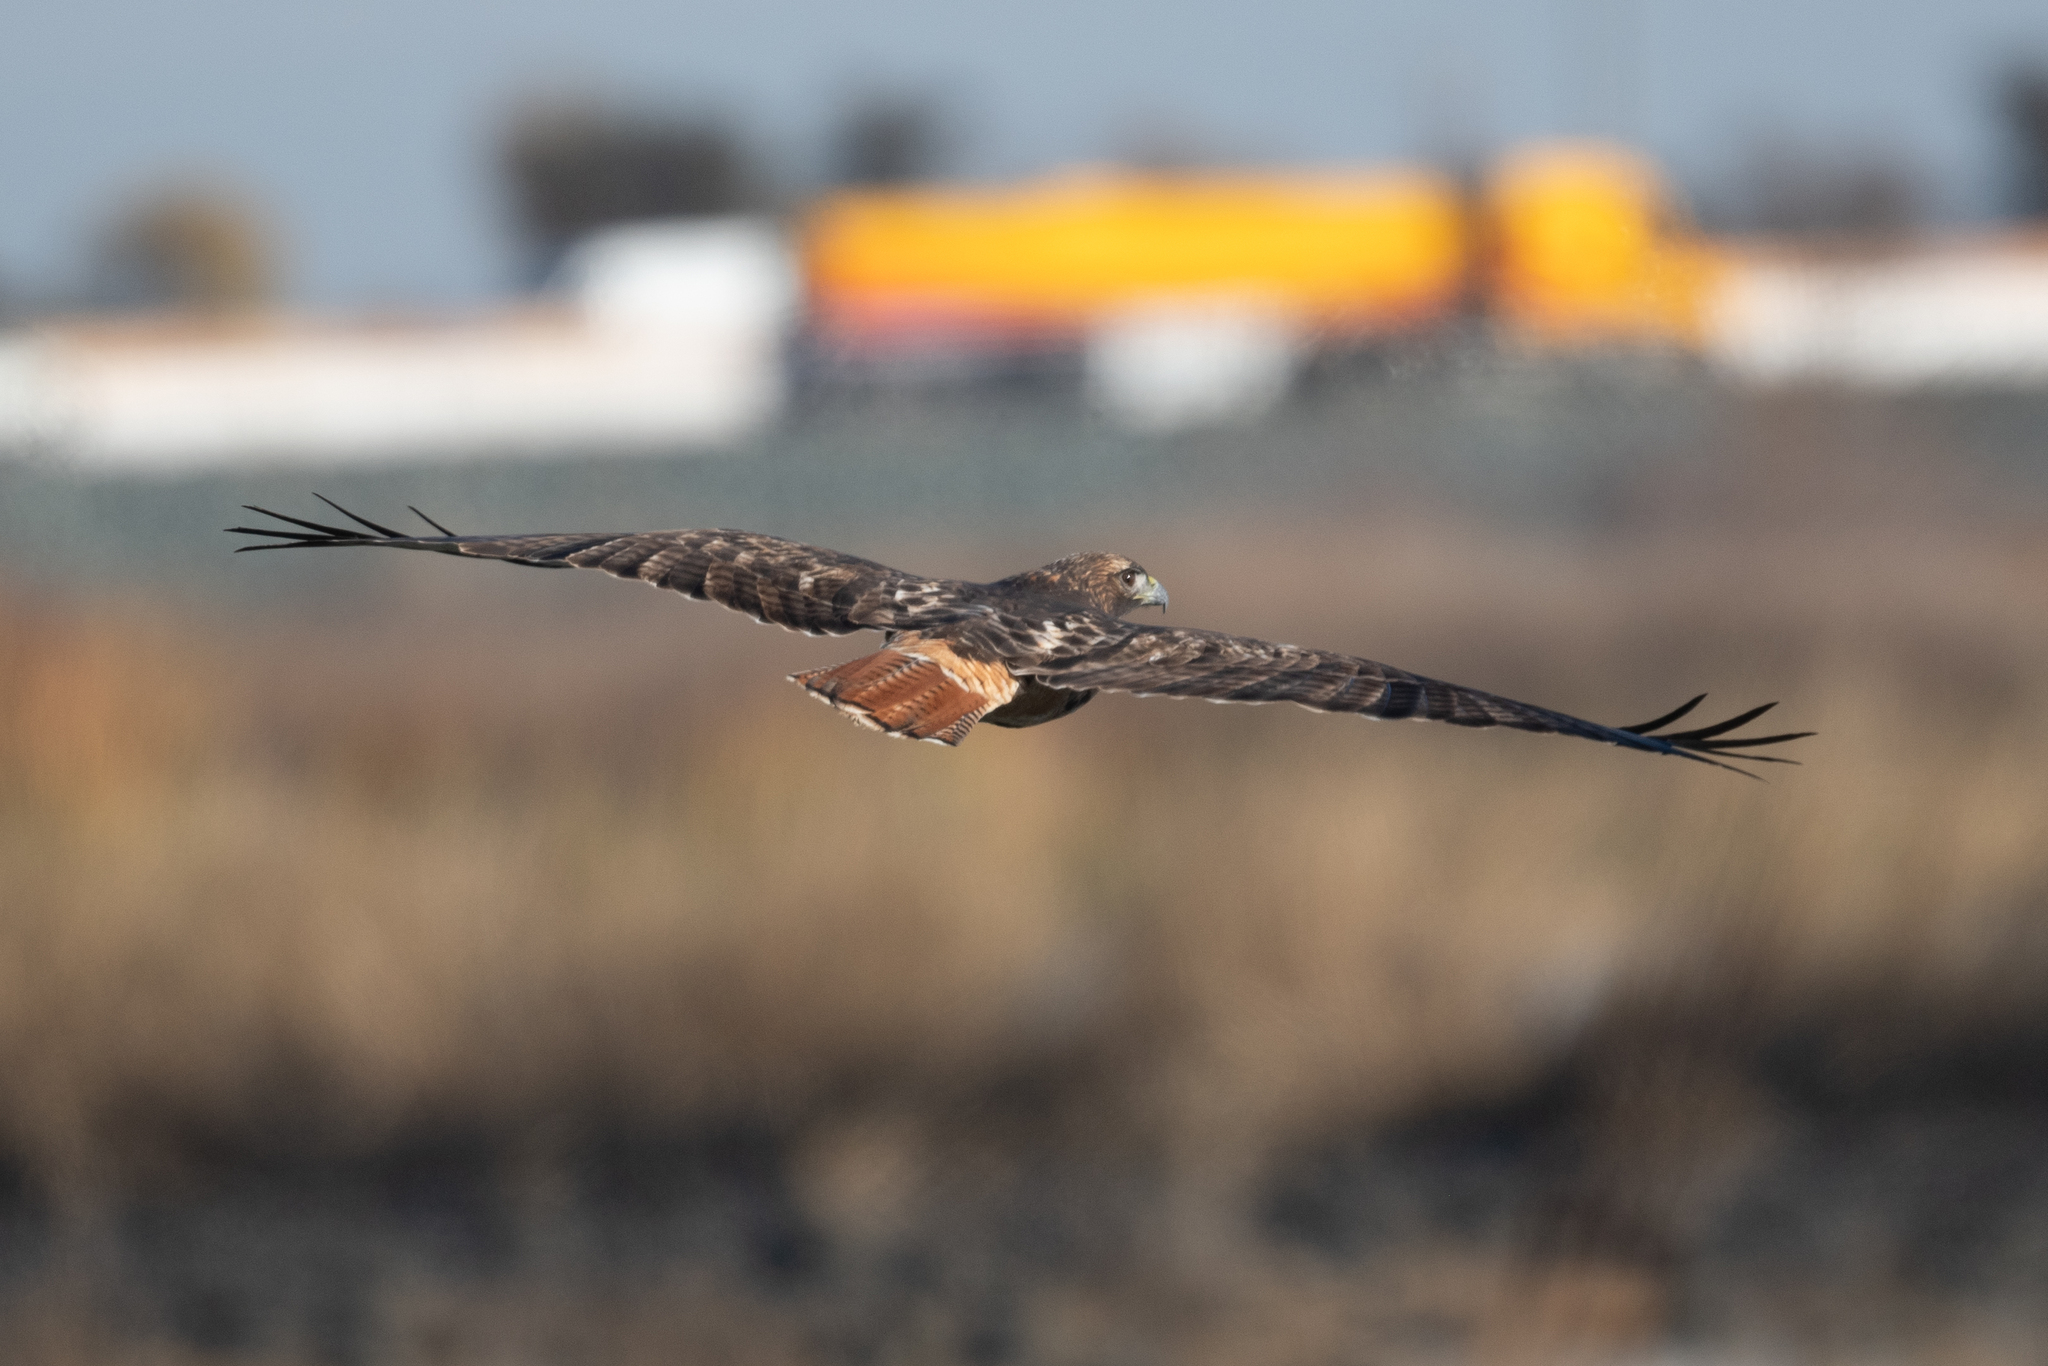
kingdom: Animalia
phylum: Chordata
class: Aves
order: Accipitriformes
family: Accipitridae
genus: Buteo
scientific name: Buteo jamaicensis
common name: Red-tailed hawk
